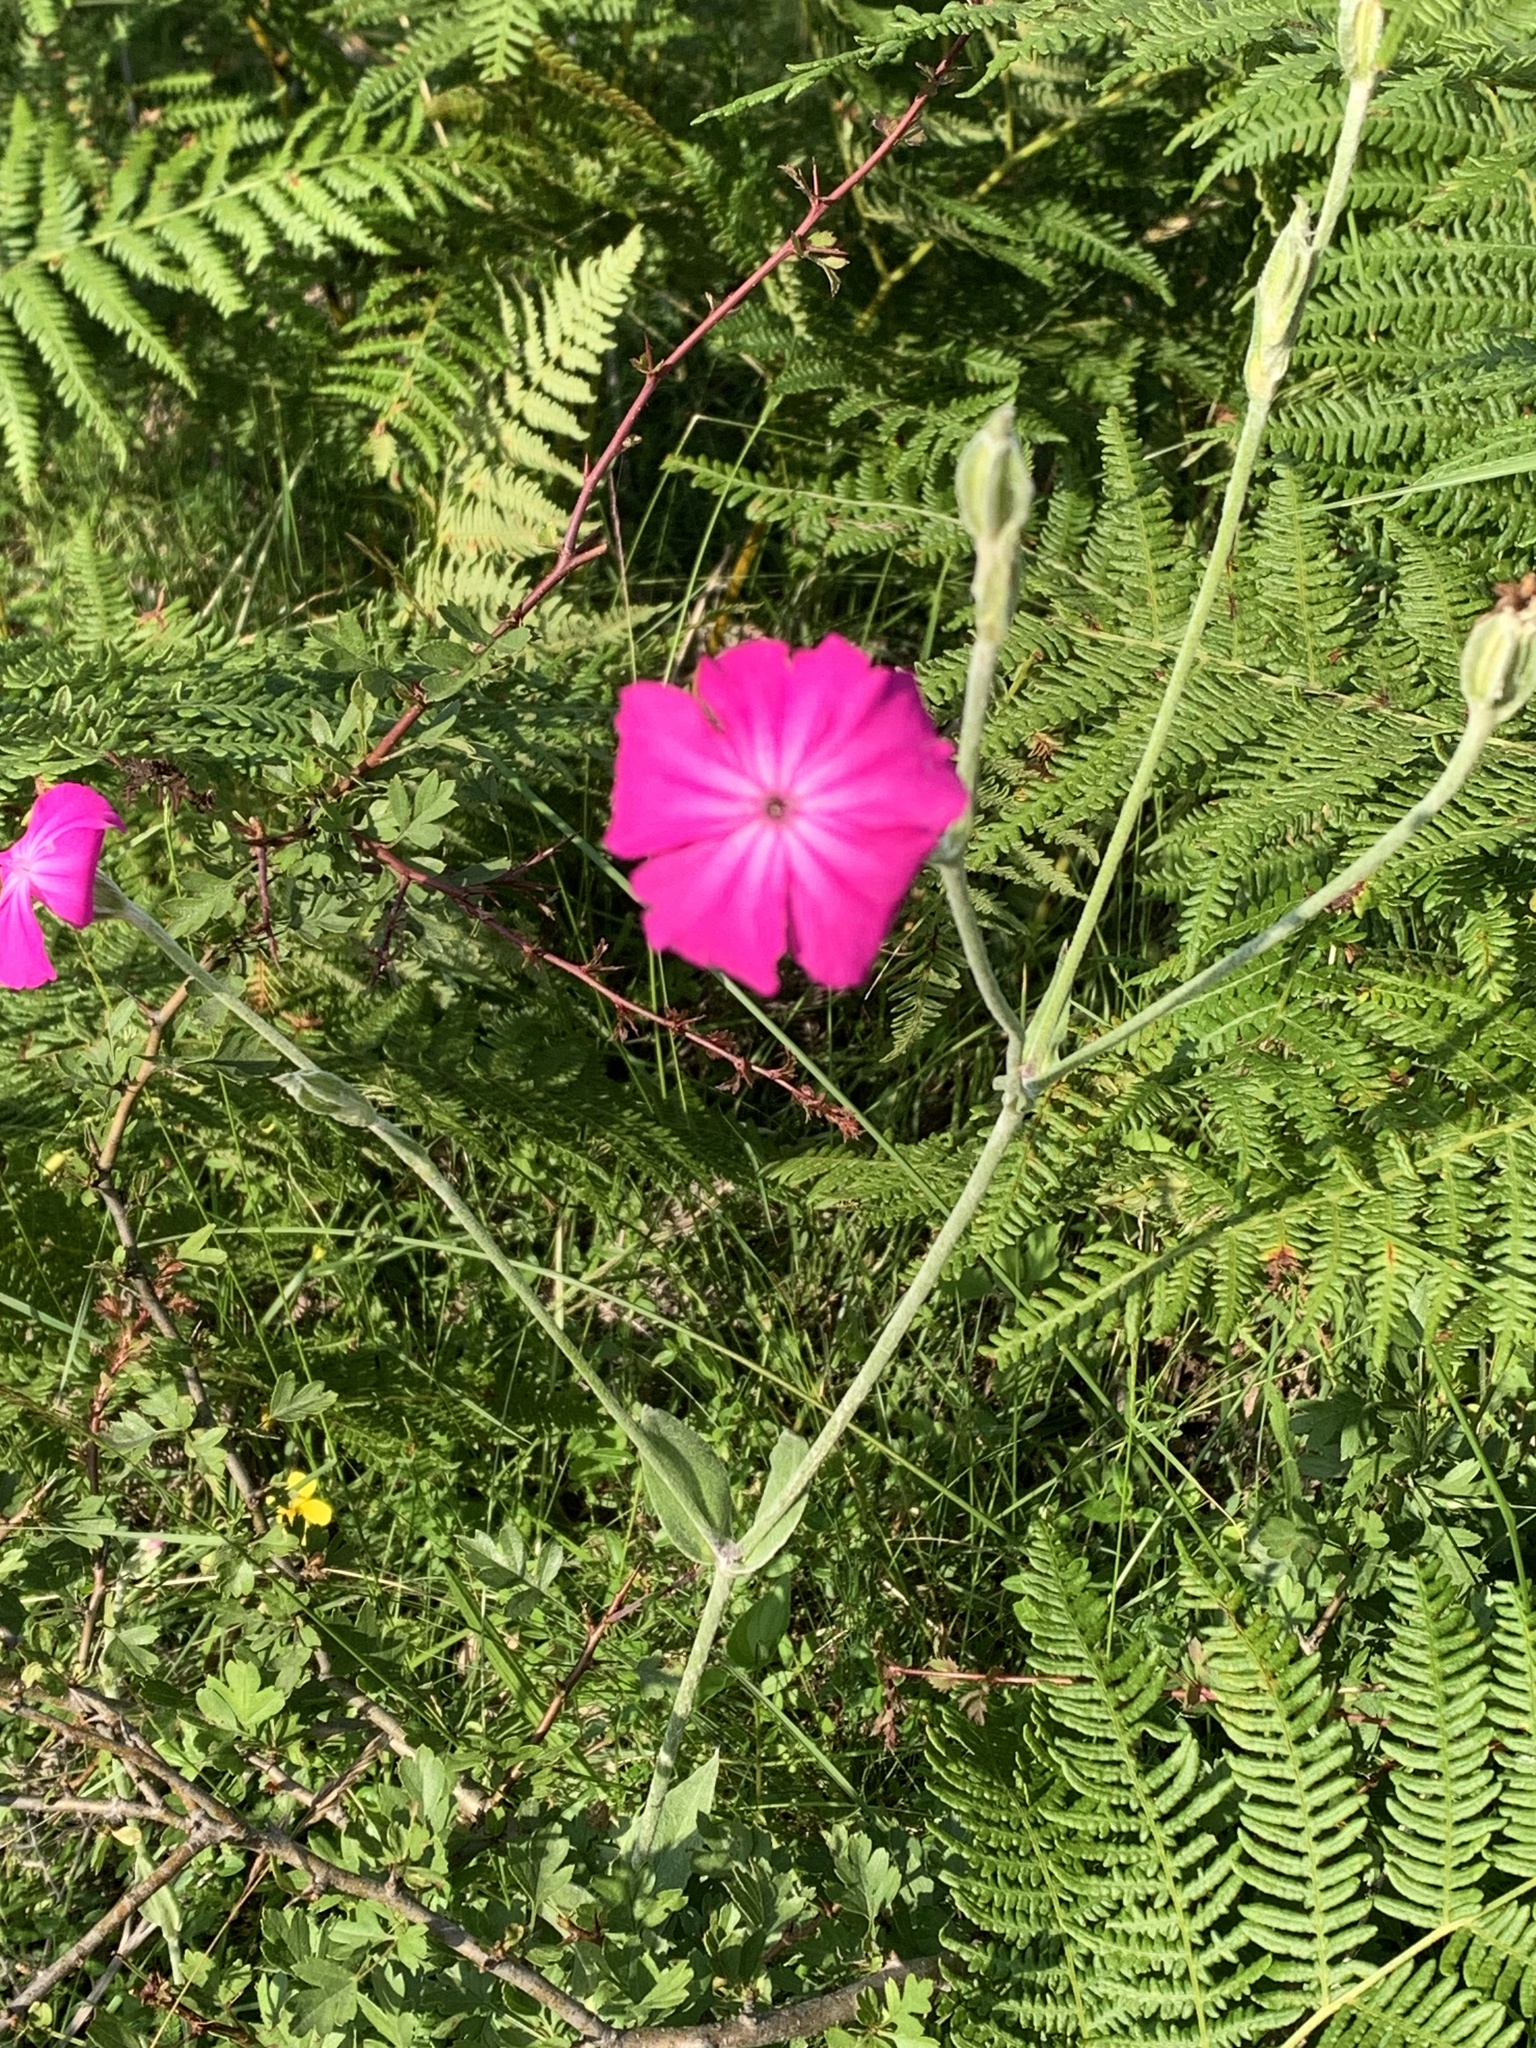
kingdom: Plantae
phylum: Tracheophyta
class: Magnoliopsida
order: Caryophyllales
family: Caryophyllaceae
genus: Silene
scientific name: Silene coronaria
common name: Rose campion
